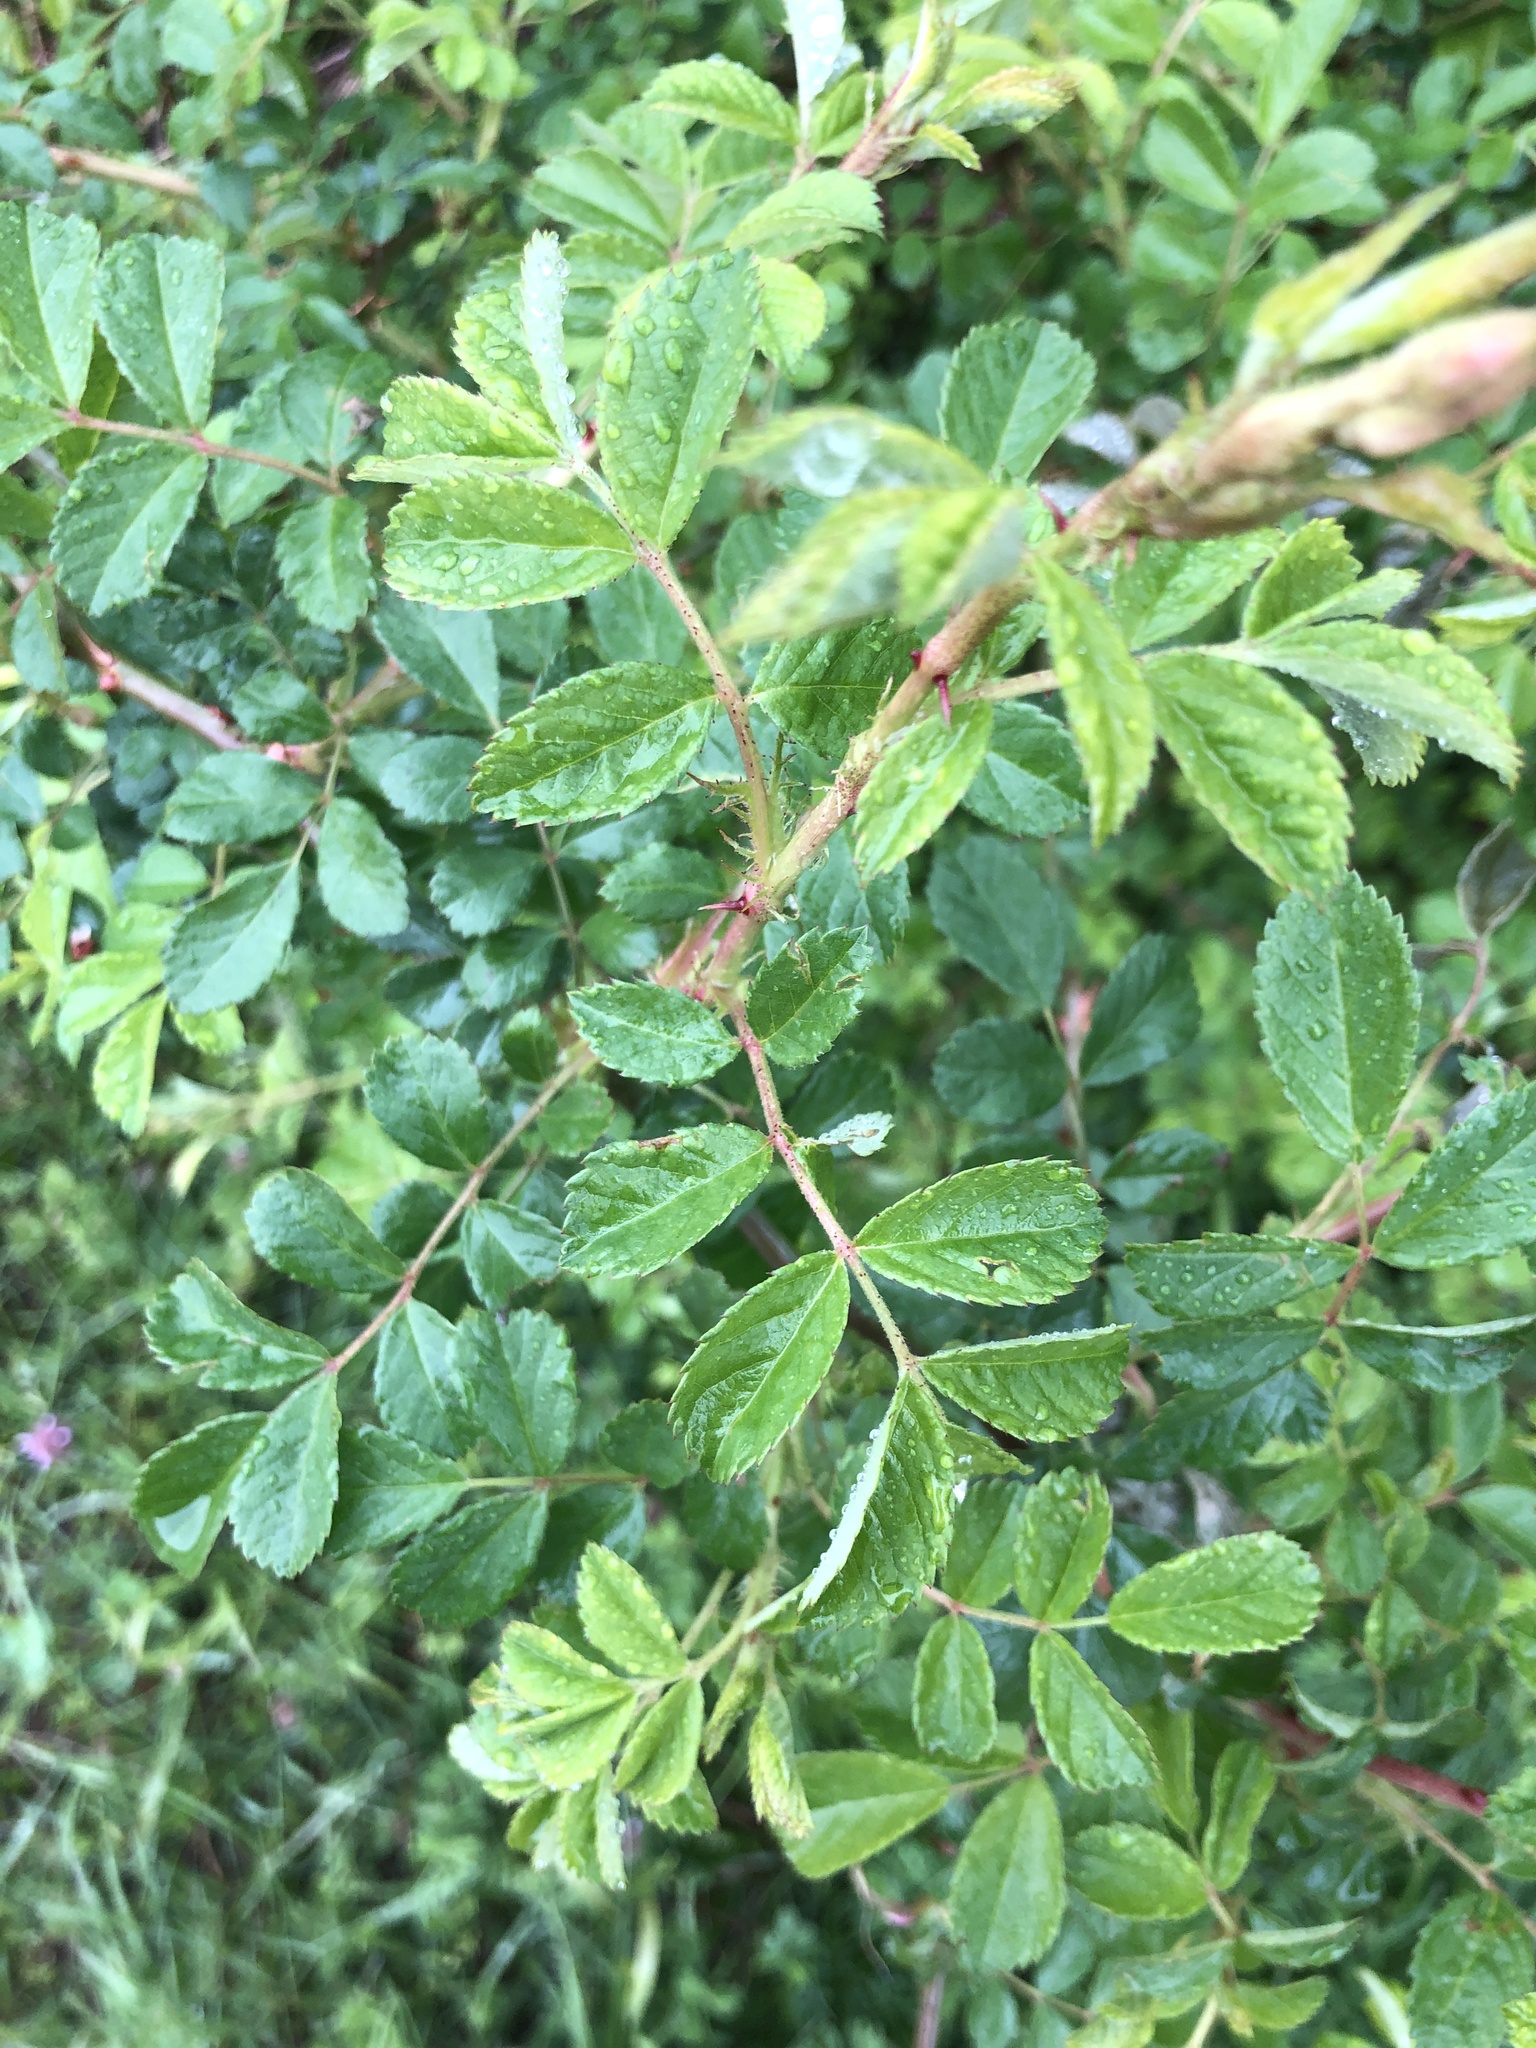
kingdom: Plantae
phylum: Tracheophyta
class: Magnoliopsida
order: Rosales
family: Rosaceae
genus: Rosa
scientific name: Rosa multiflora
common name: Multiflora rose
